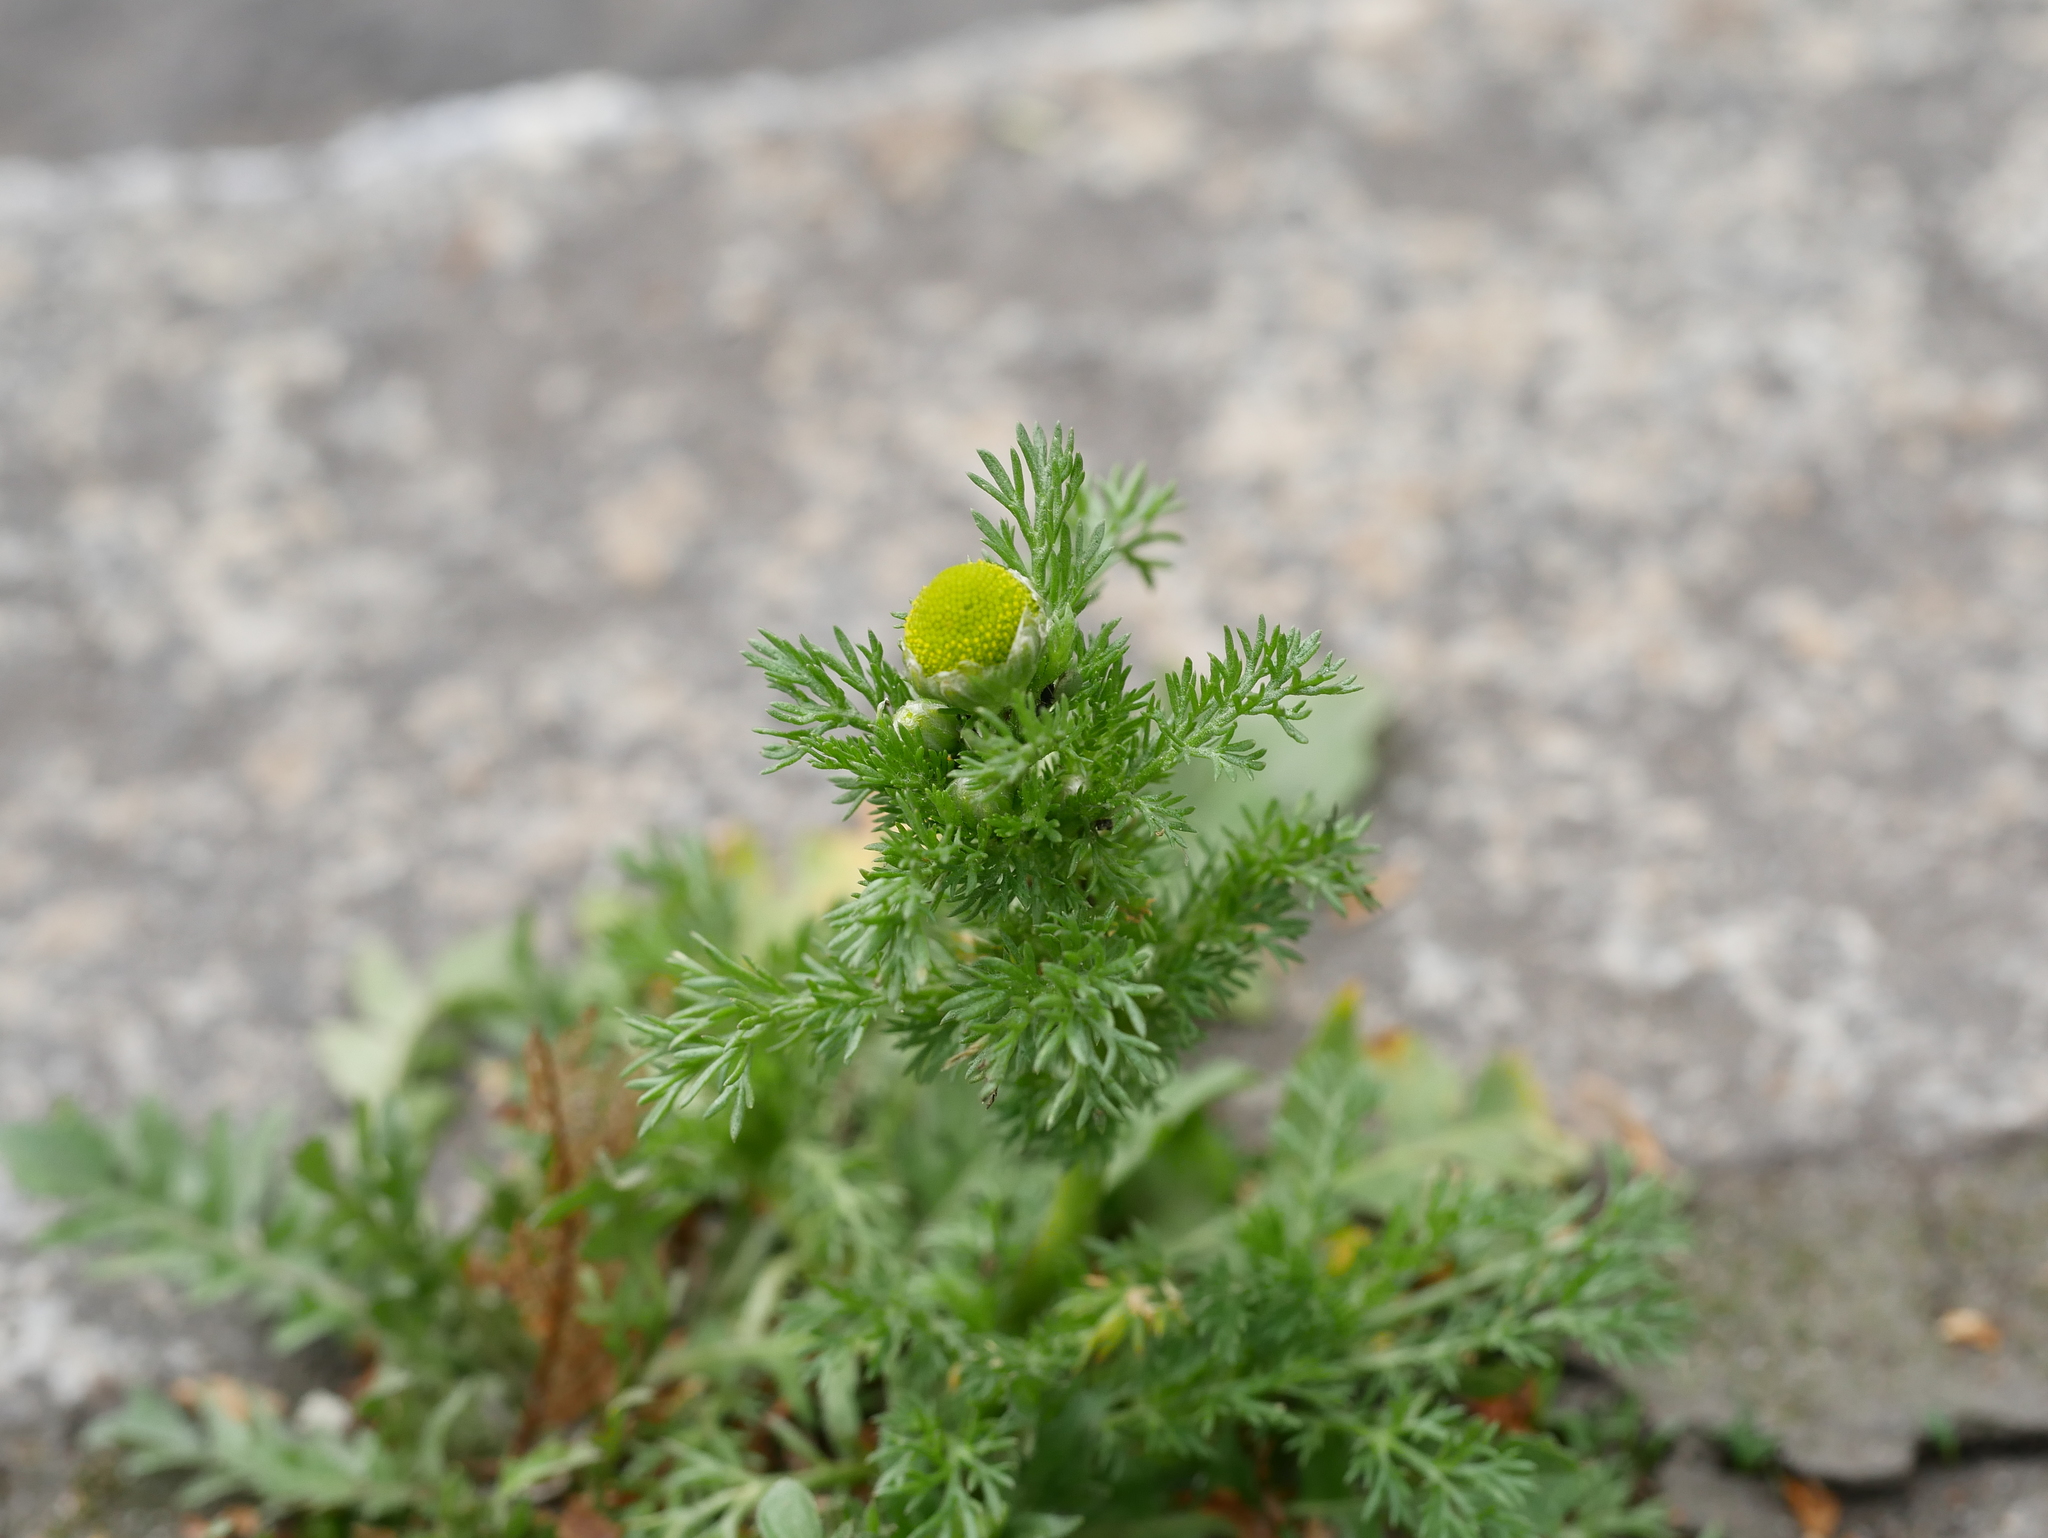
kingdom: Plantae
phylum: Tracheophyta
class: Magnoliopsida
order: Asterales
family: Asteraceae
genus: Matricaria
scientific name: Matricaria discoidea
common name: Disc mayweed
